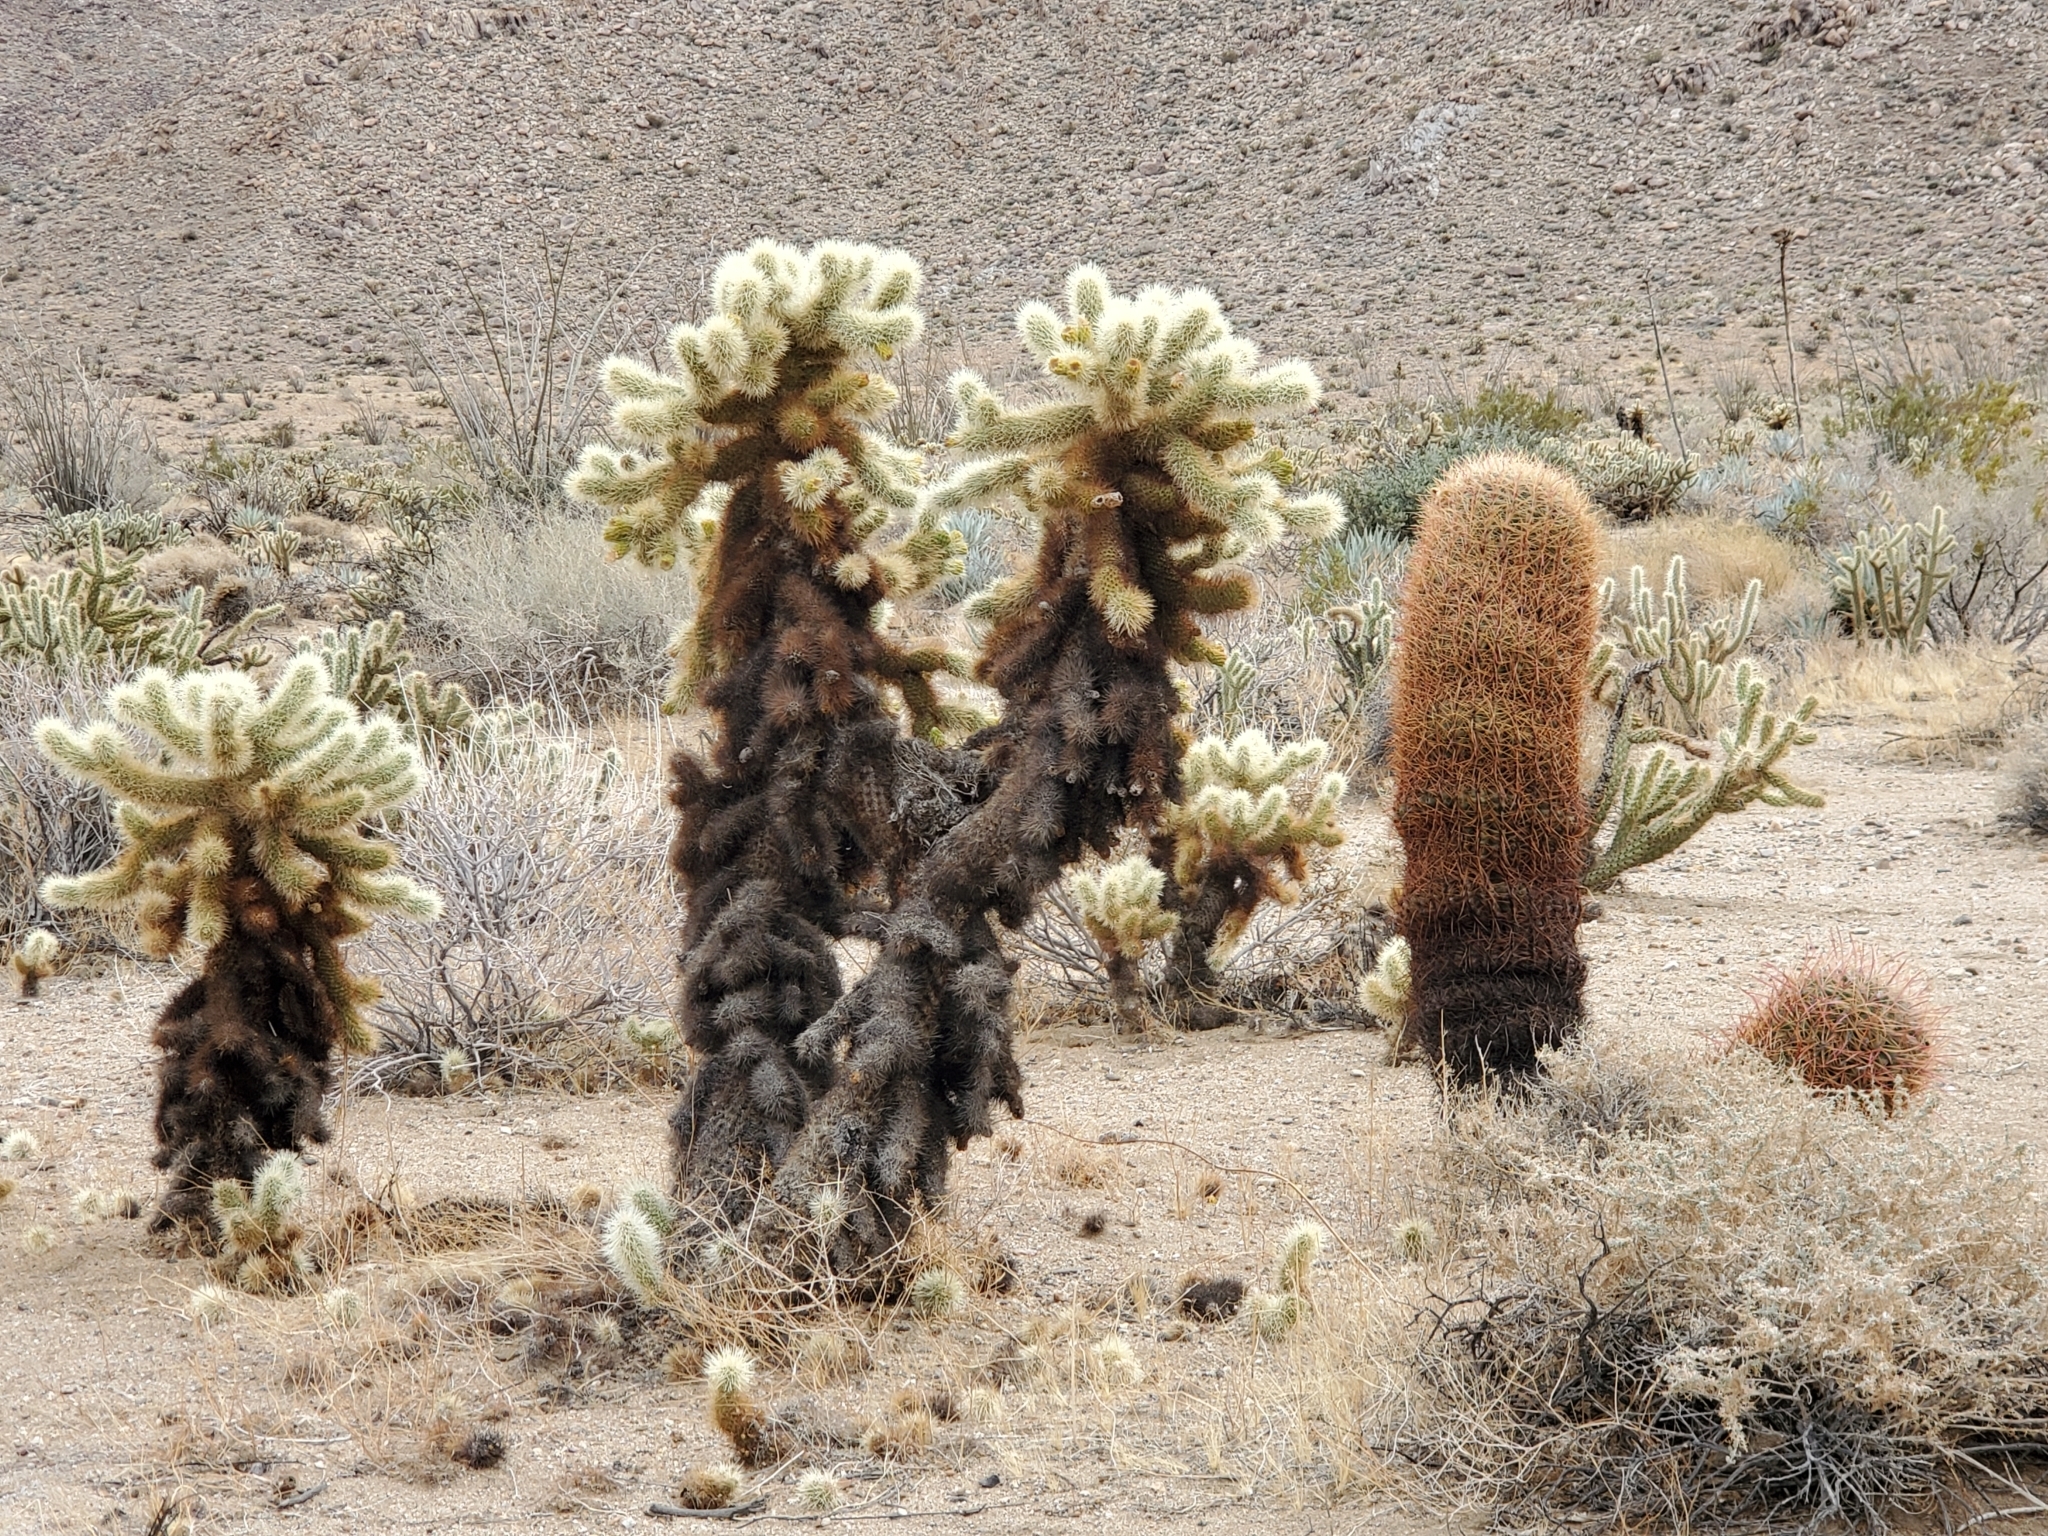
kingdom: Plantae
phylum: Tracheophyta
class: Magnoliopsida
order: Caryophyllales
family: Cactaceae
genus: Cylindropuntia
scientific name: Cylindropuntia fosbergii
